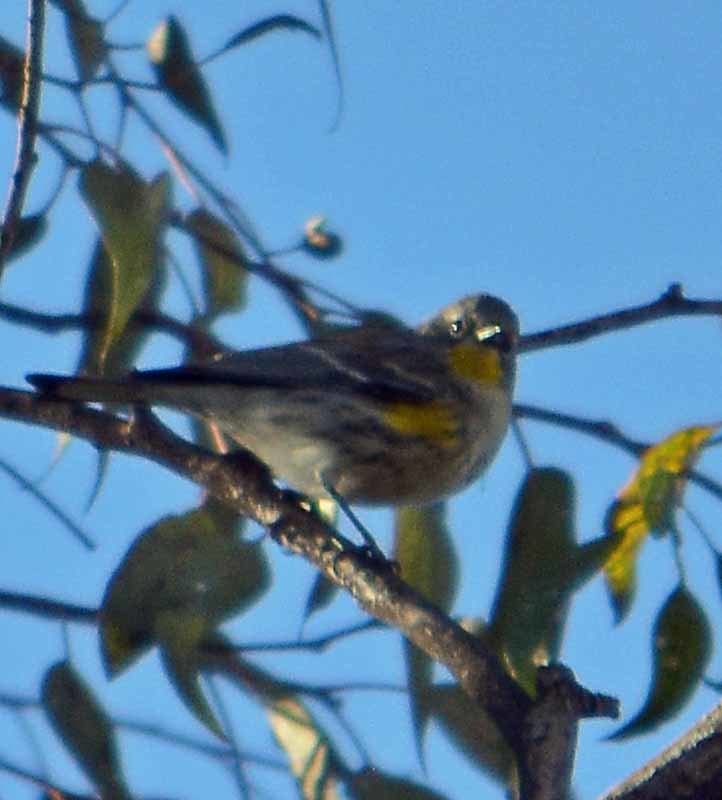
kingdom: Animalia
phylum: Chordata
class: Aves
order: Passeriformes
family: Parulidae
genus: Setophaga
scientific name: Setophaga coronata
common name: Myrtle warbler
